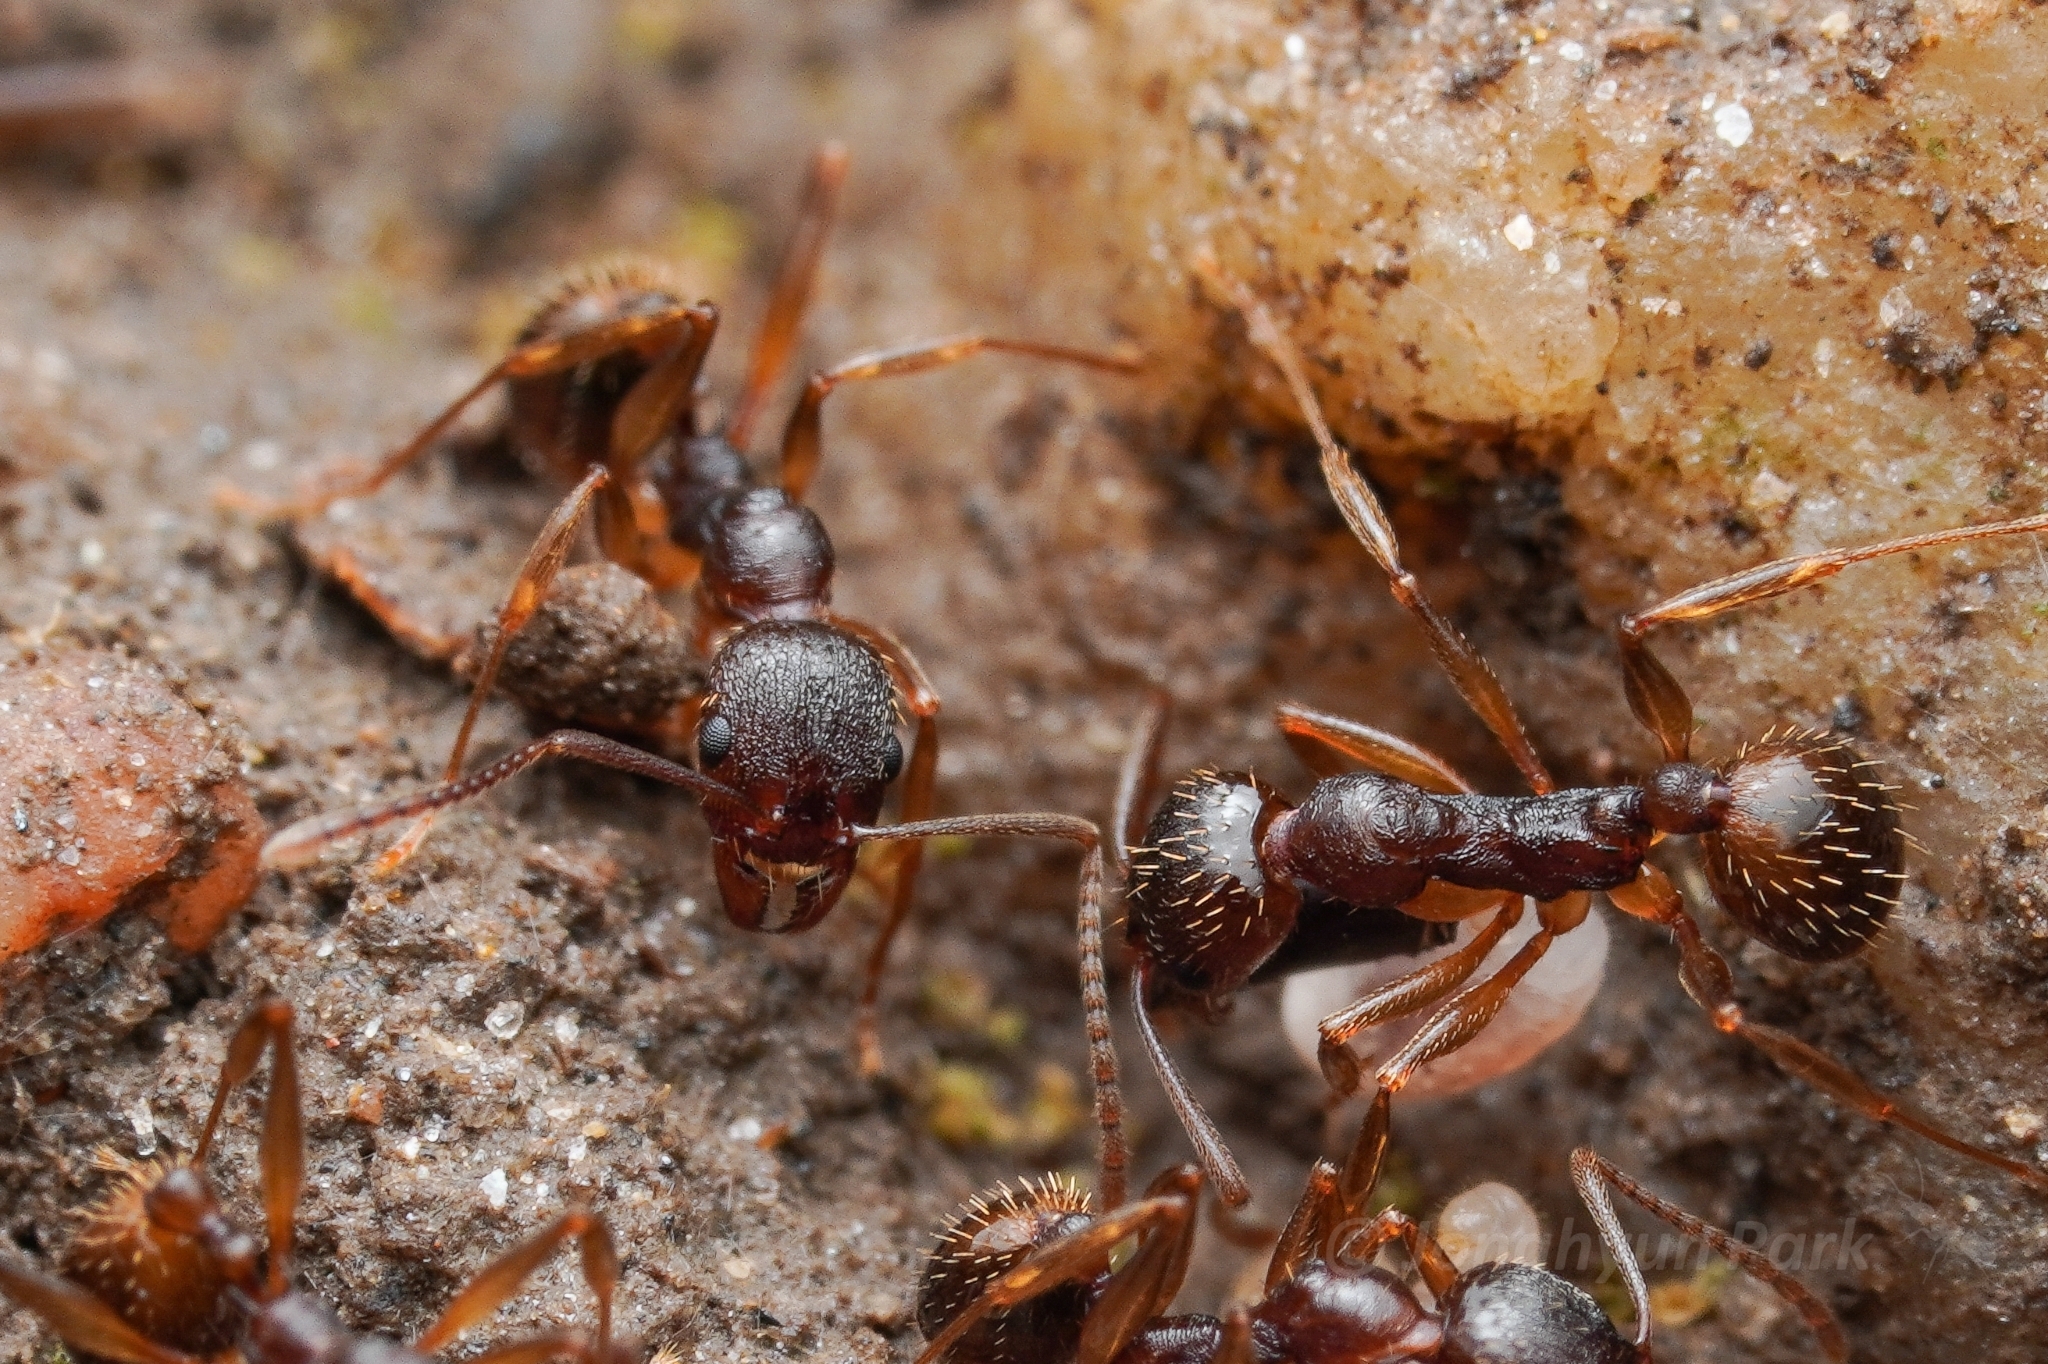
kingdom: Animalia
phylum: Arthropoda
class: Insecta
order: Hymenoptera
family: Formicidae
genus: Aphaenogaster
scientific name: Aphaenogaster rudis
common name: Winnow ant
